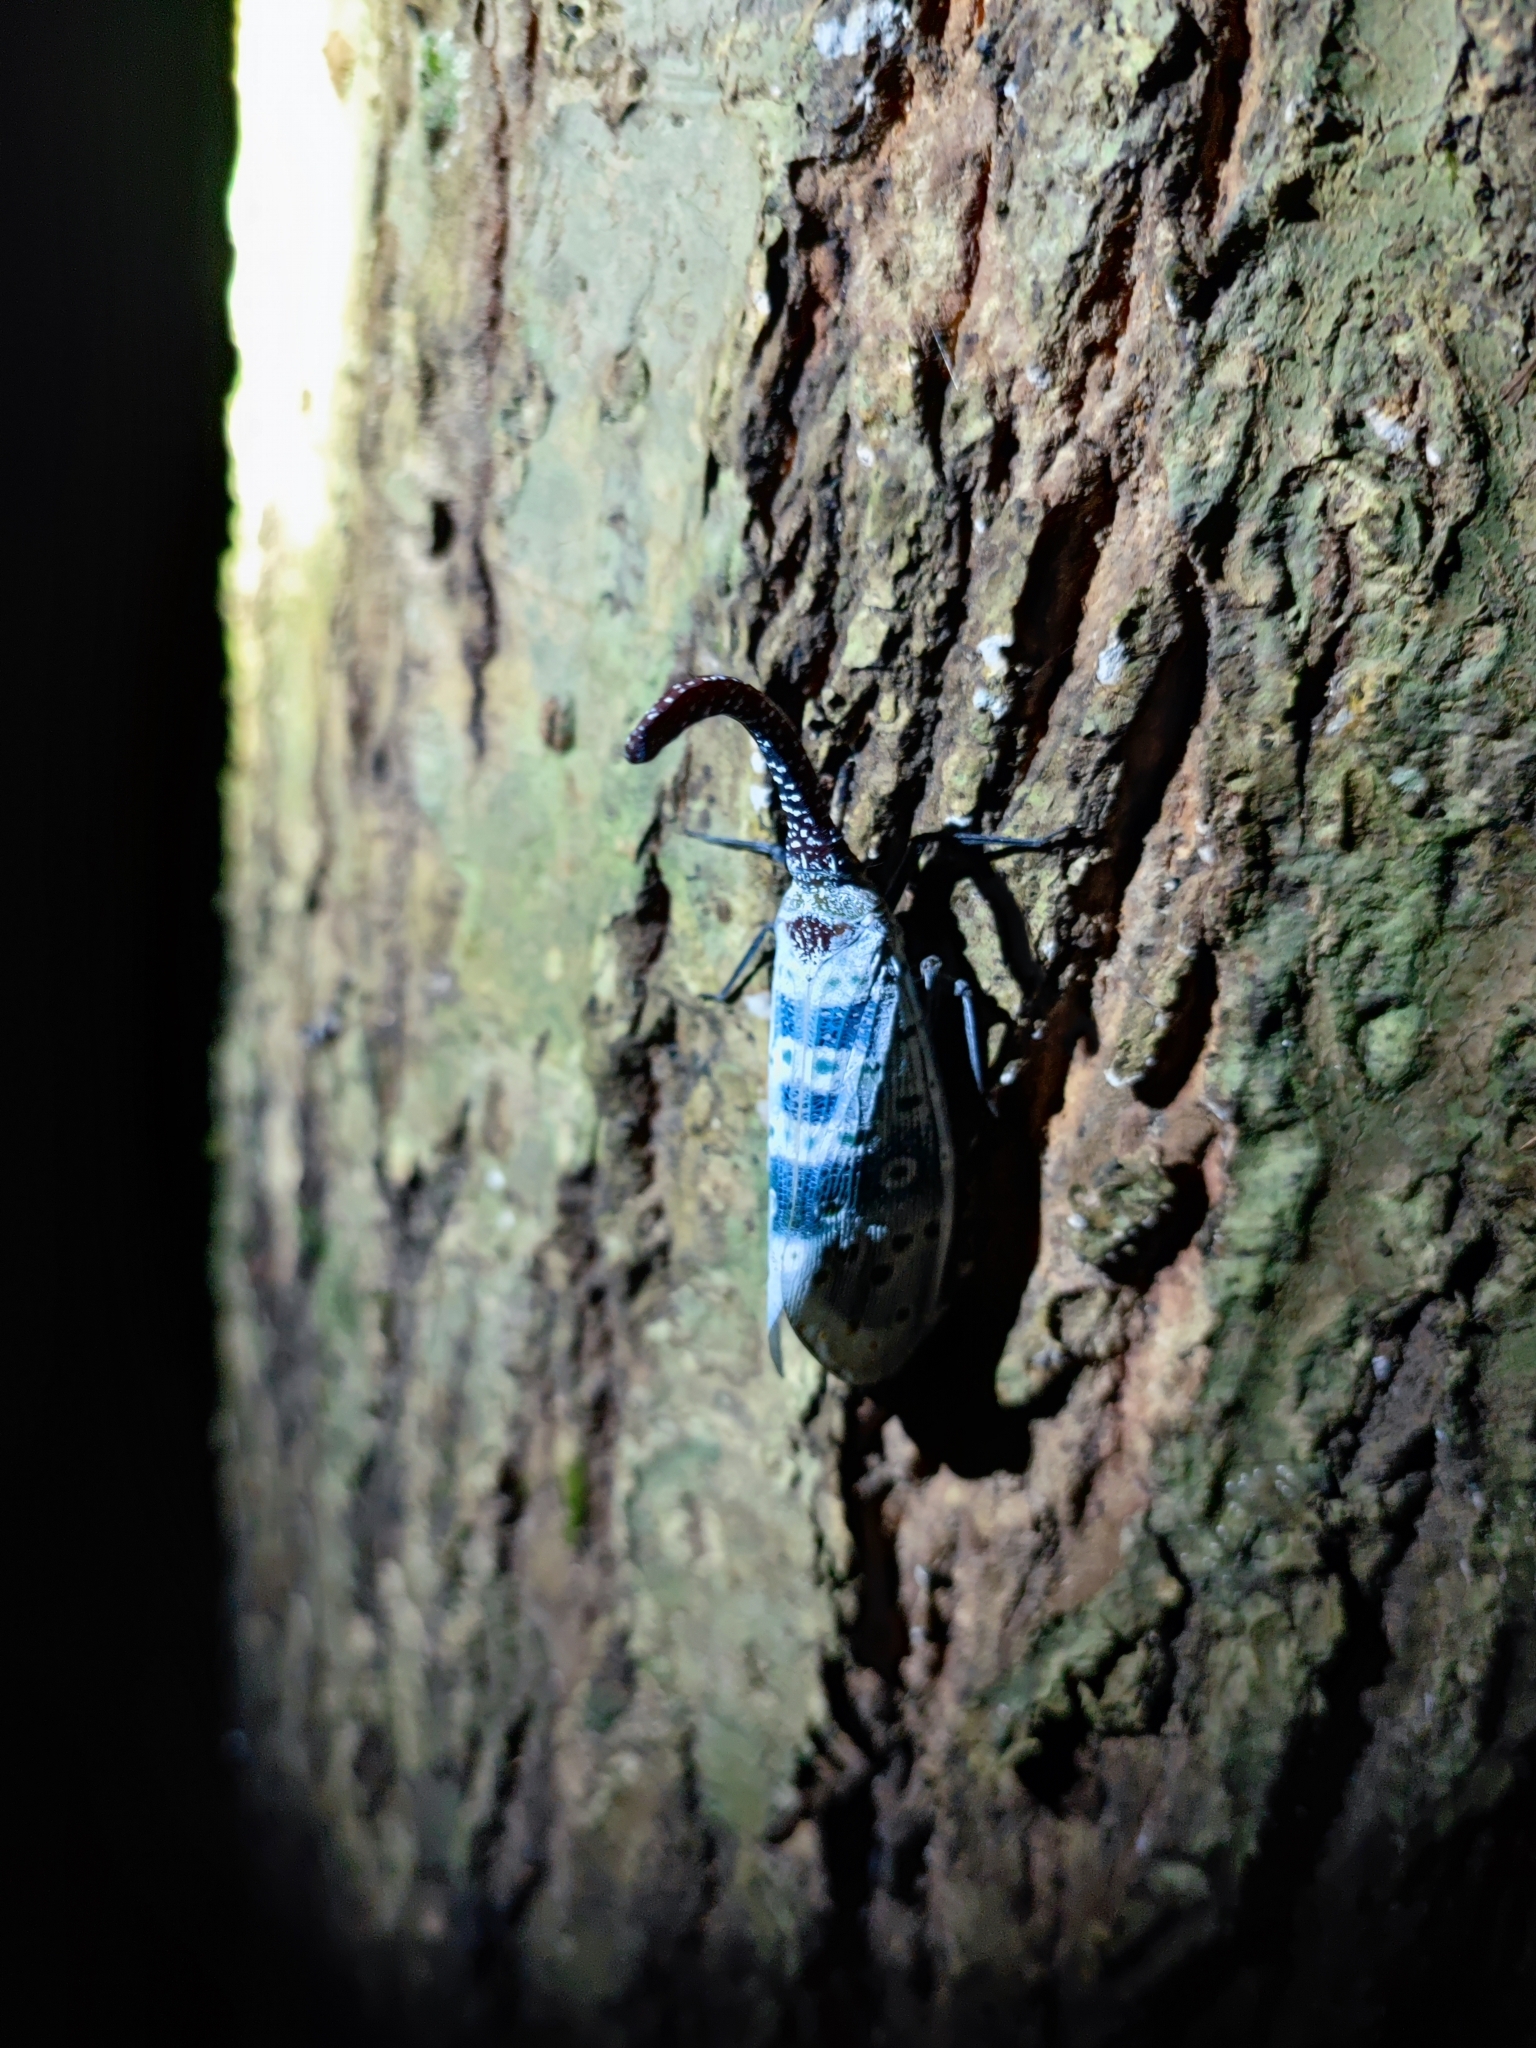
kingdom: Animalia
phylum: Arthropoda
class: Insecta
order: Hemiptera
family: Fulgoridae
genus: Pyrops
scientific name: Pyrops coelestinus
